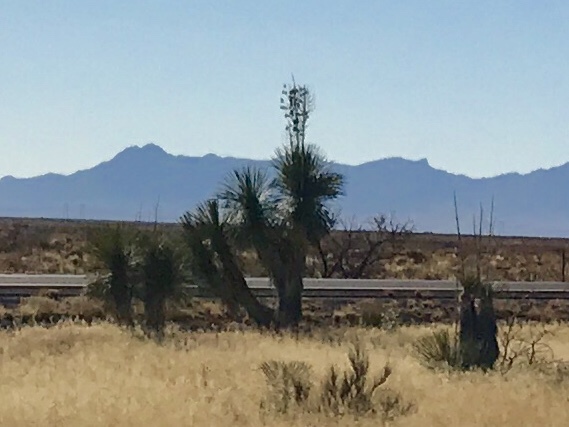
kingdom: Plantae
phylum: Tracheophyta
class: Liliopsida
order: Asparagales
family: Asparagaceae
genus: Yucca
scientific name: Yucca elata
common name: Palmella
